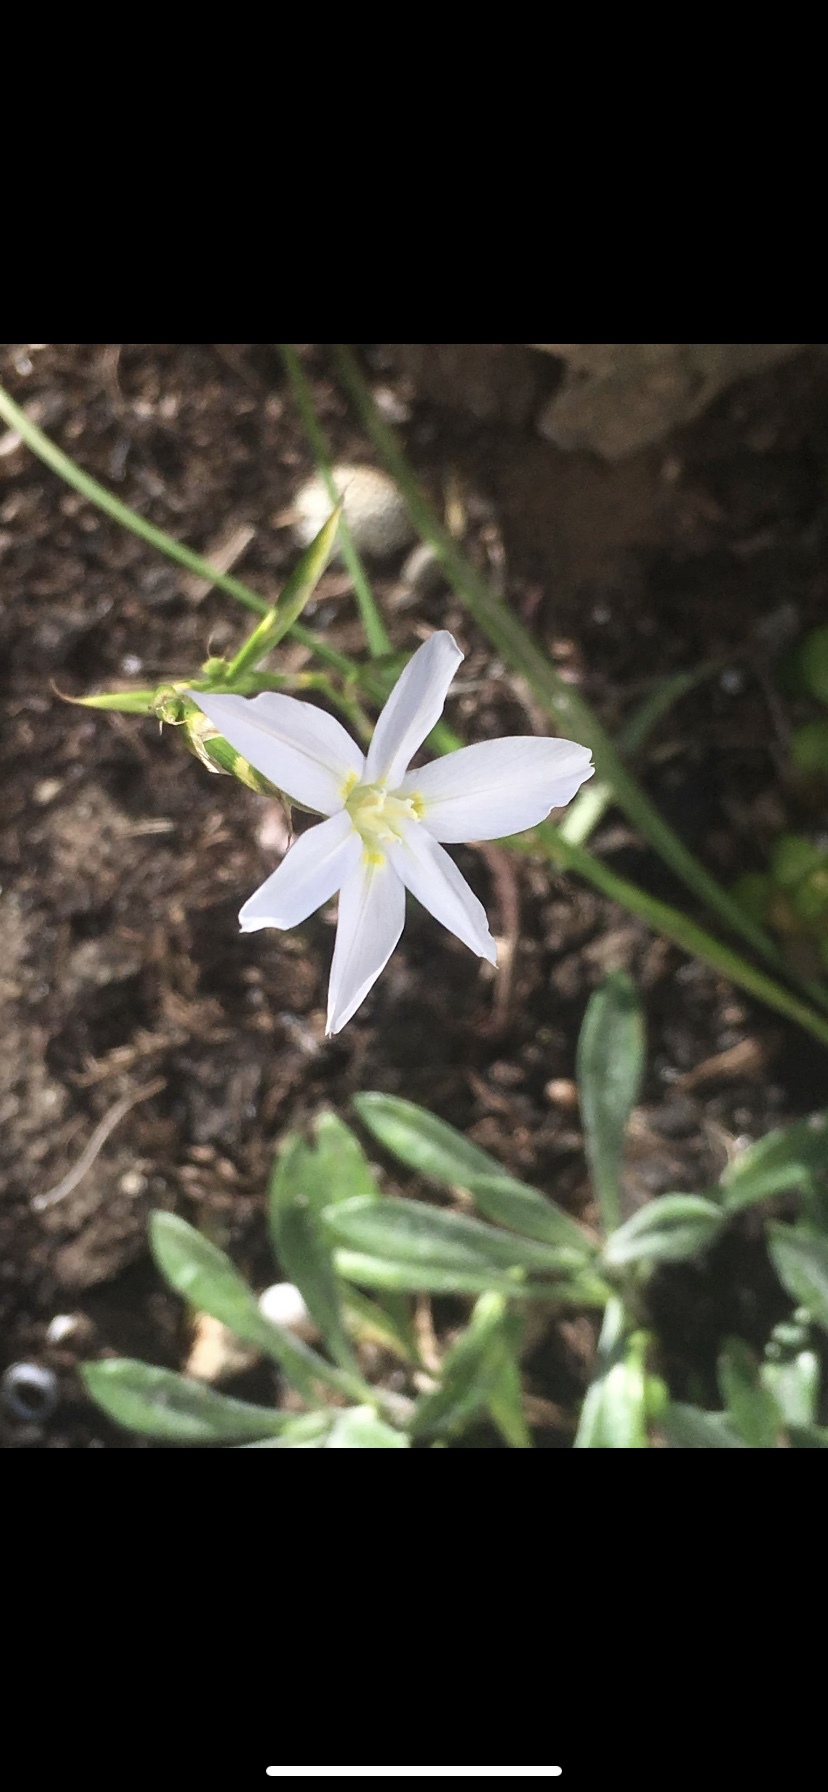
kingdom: Plantae
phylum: Tracheophyta
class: Liliopsida
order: Asparagales
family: Iridaceae
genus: Moraea
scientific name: Moraea polyanthos
